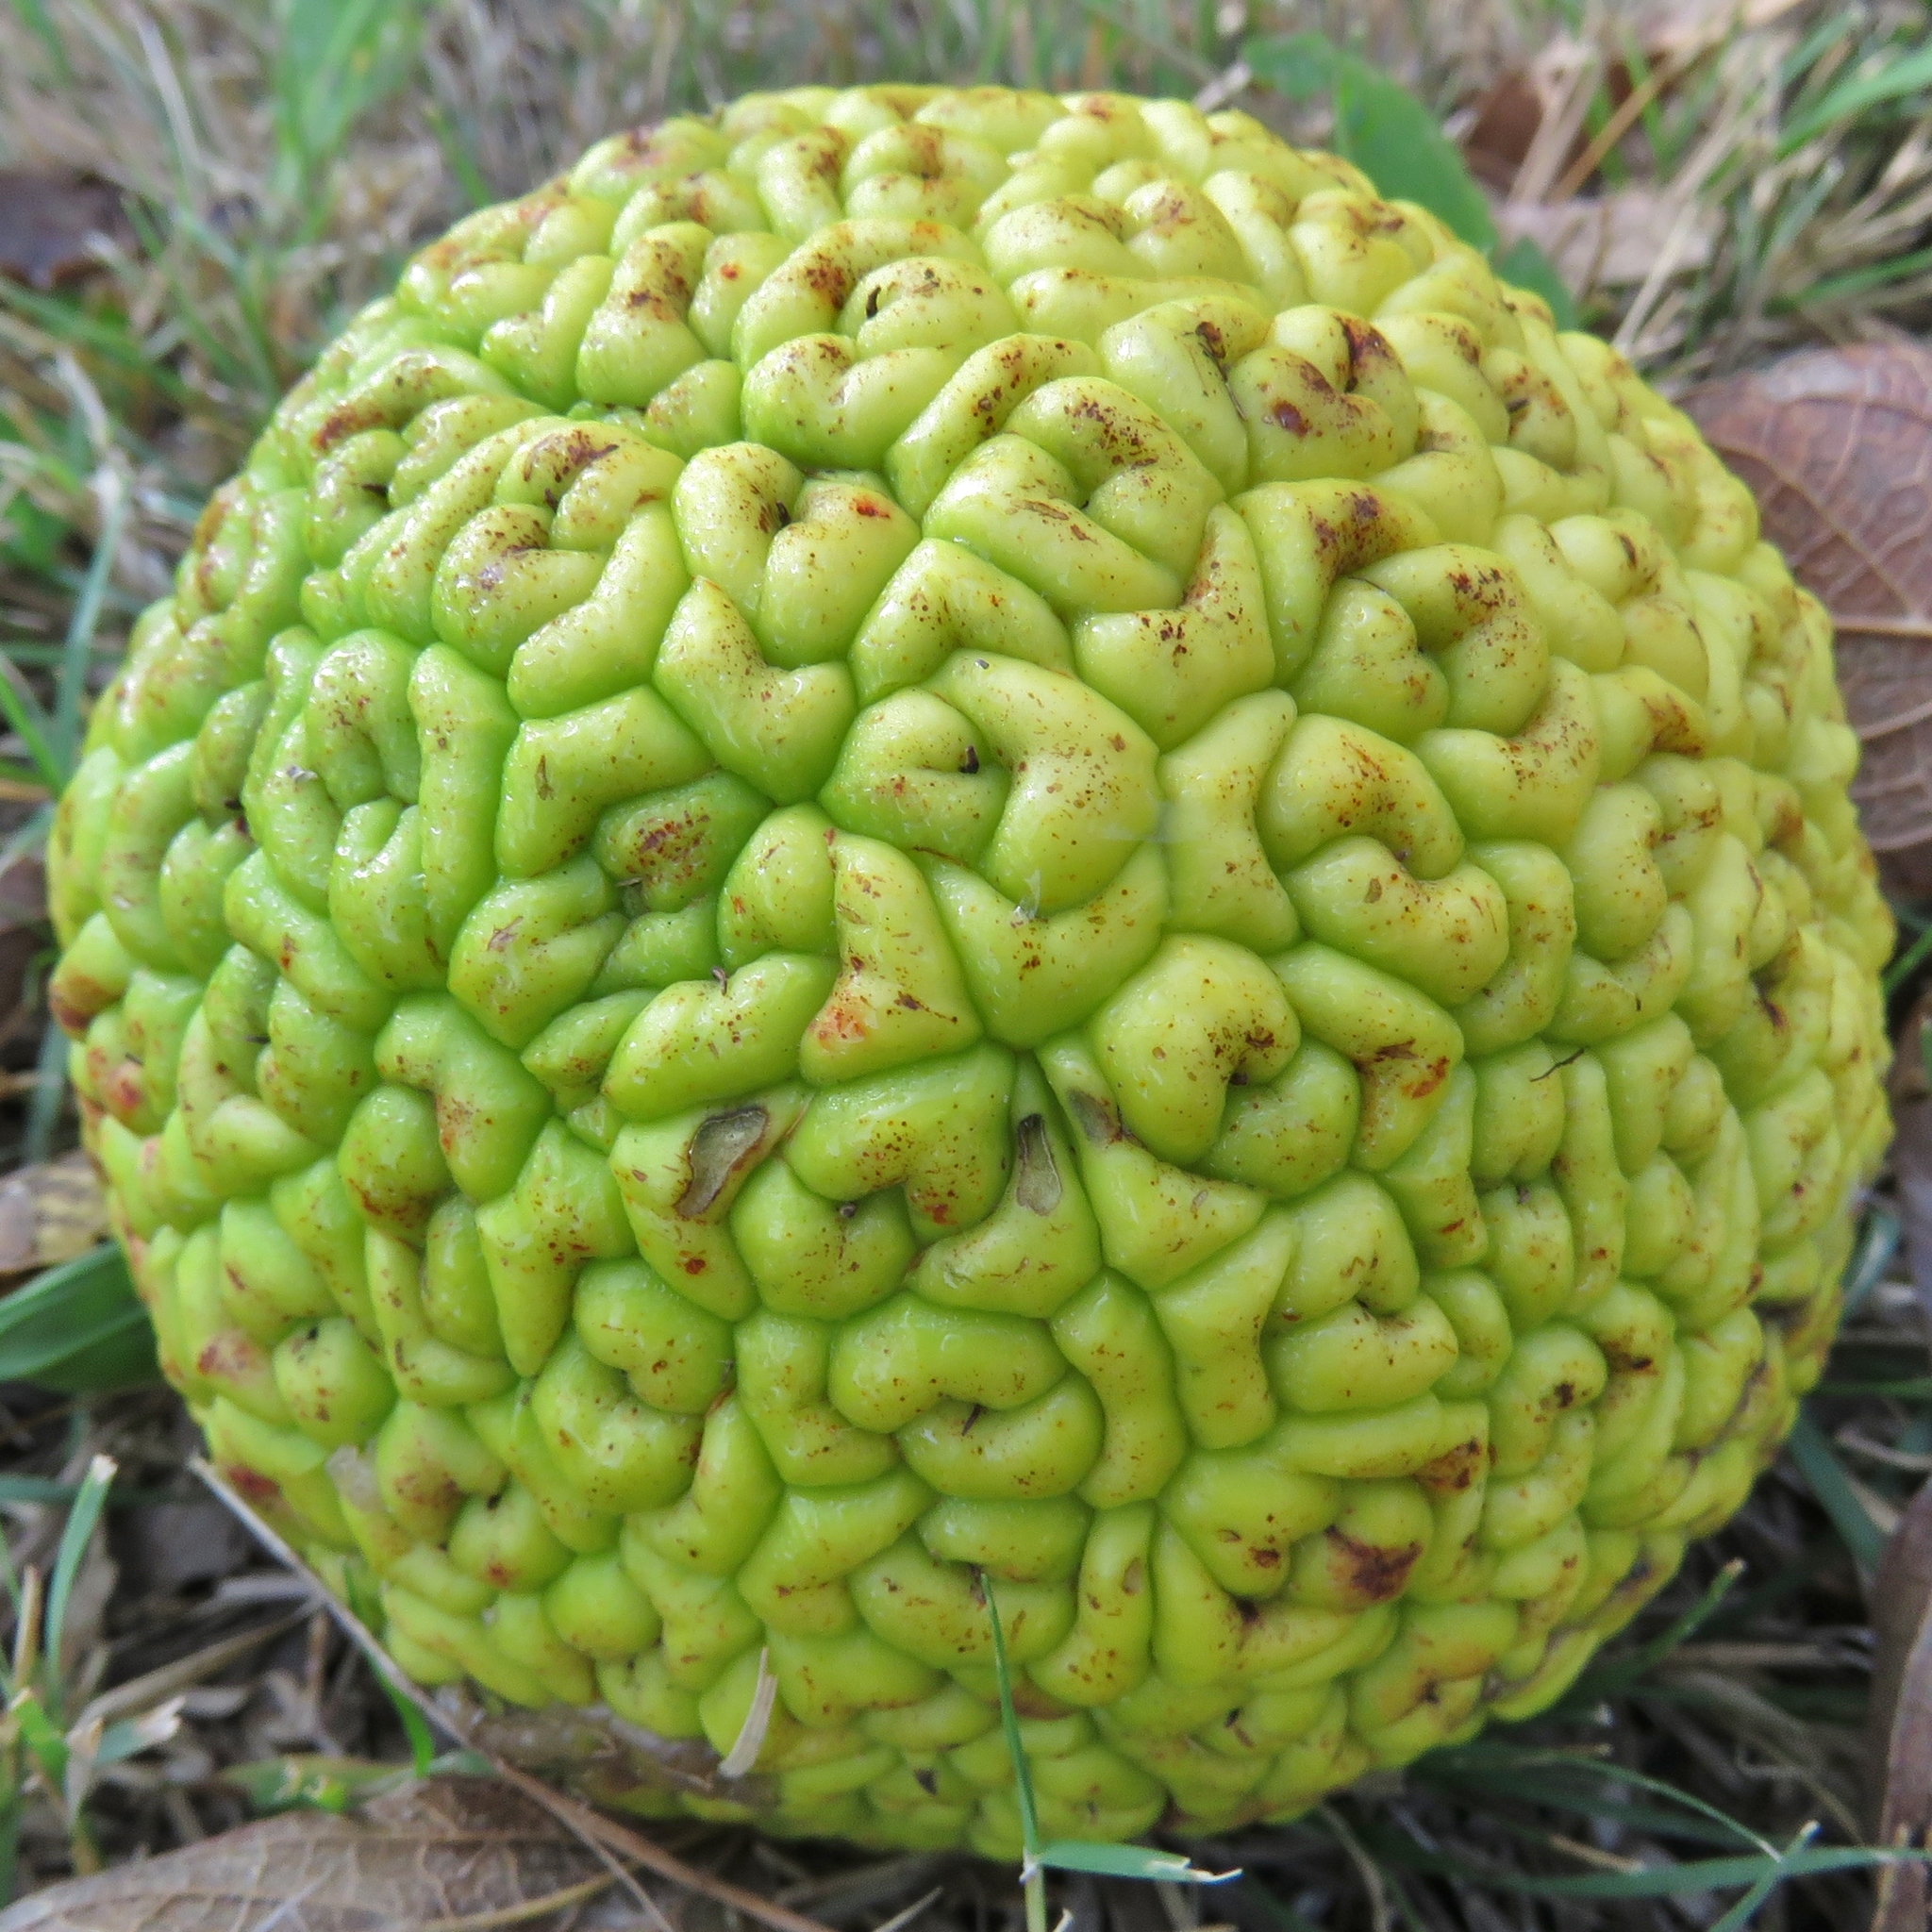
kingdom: Plantae
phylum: Tracheophyta
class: Magnoliopsida
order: Rosales
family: Moraceae
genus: Maclura
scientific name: Maclura pomifera
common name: Osage-orange
